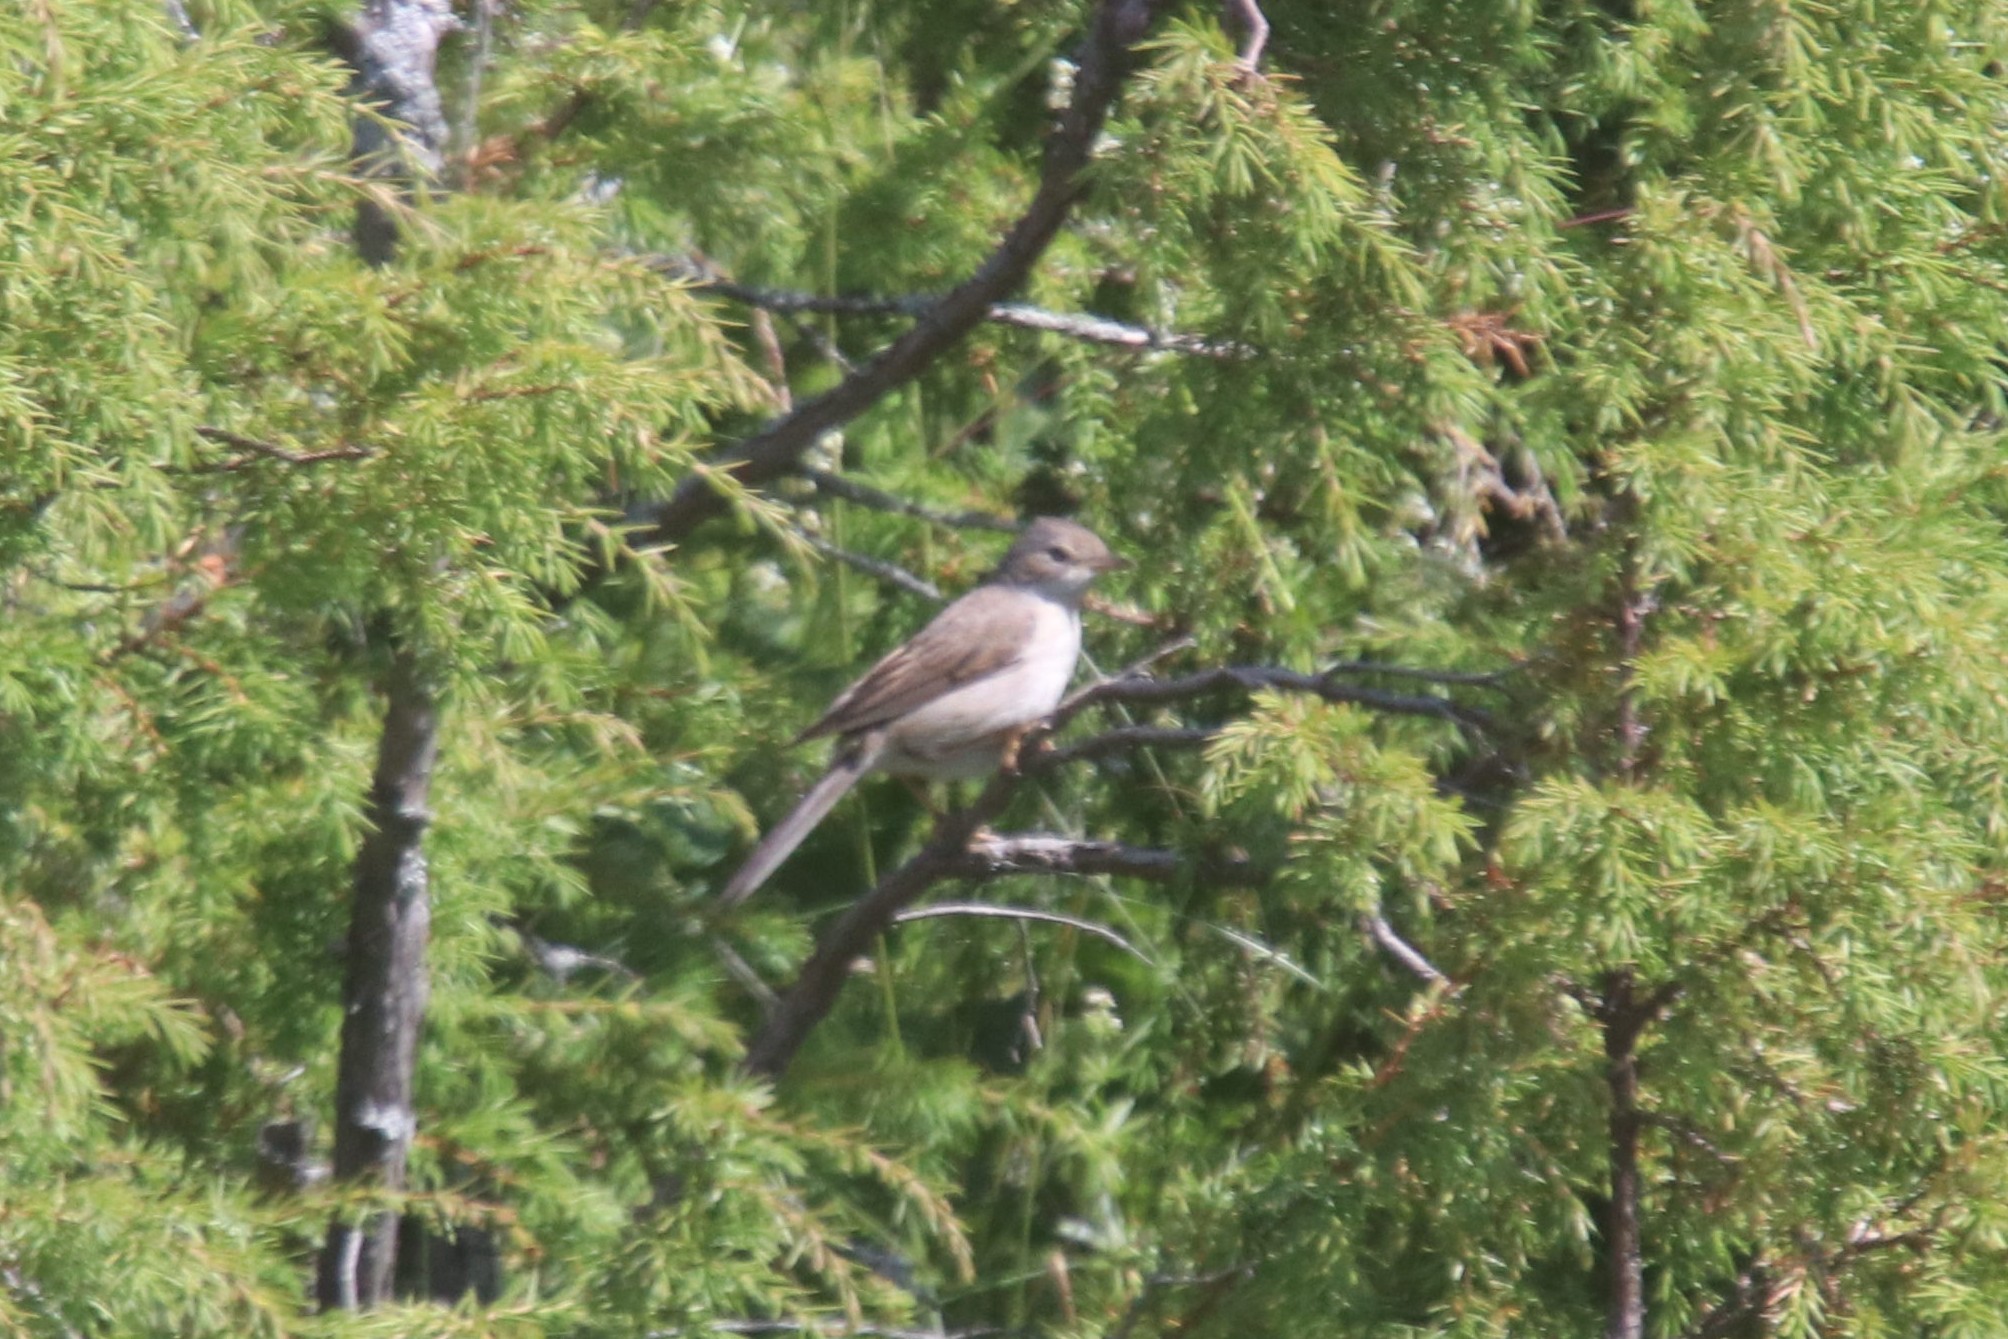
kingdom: Animalia
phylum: Chordata
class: Aves
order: Passeriformes
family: Sylviidae
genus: Sylvia
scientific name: Sylvia communis
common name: Common whitethroat
